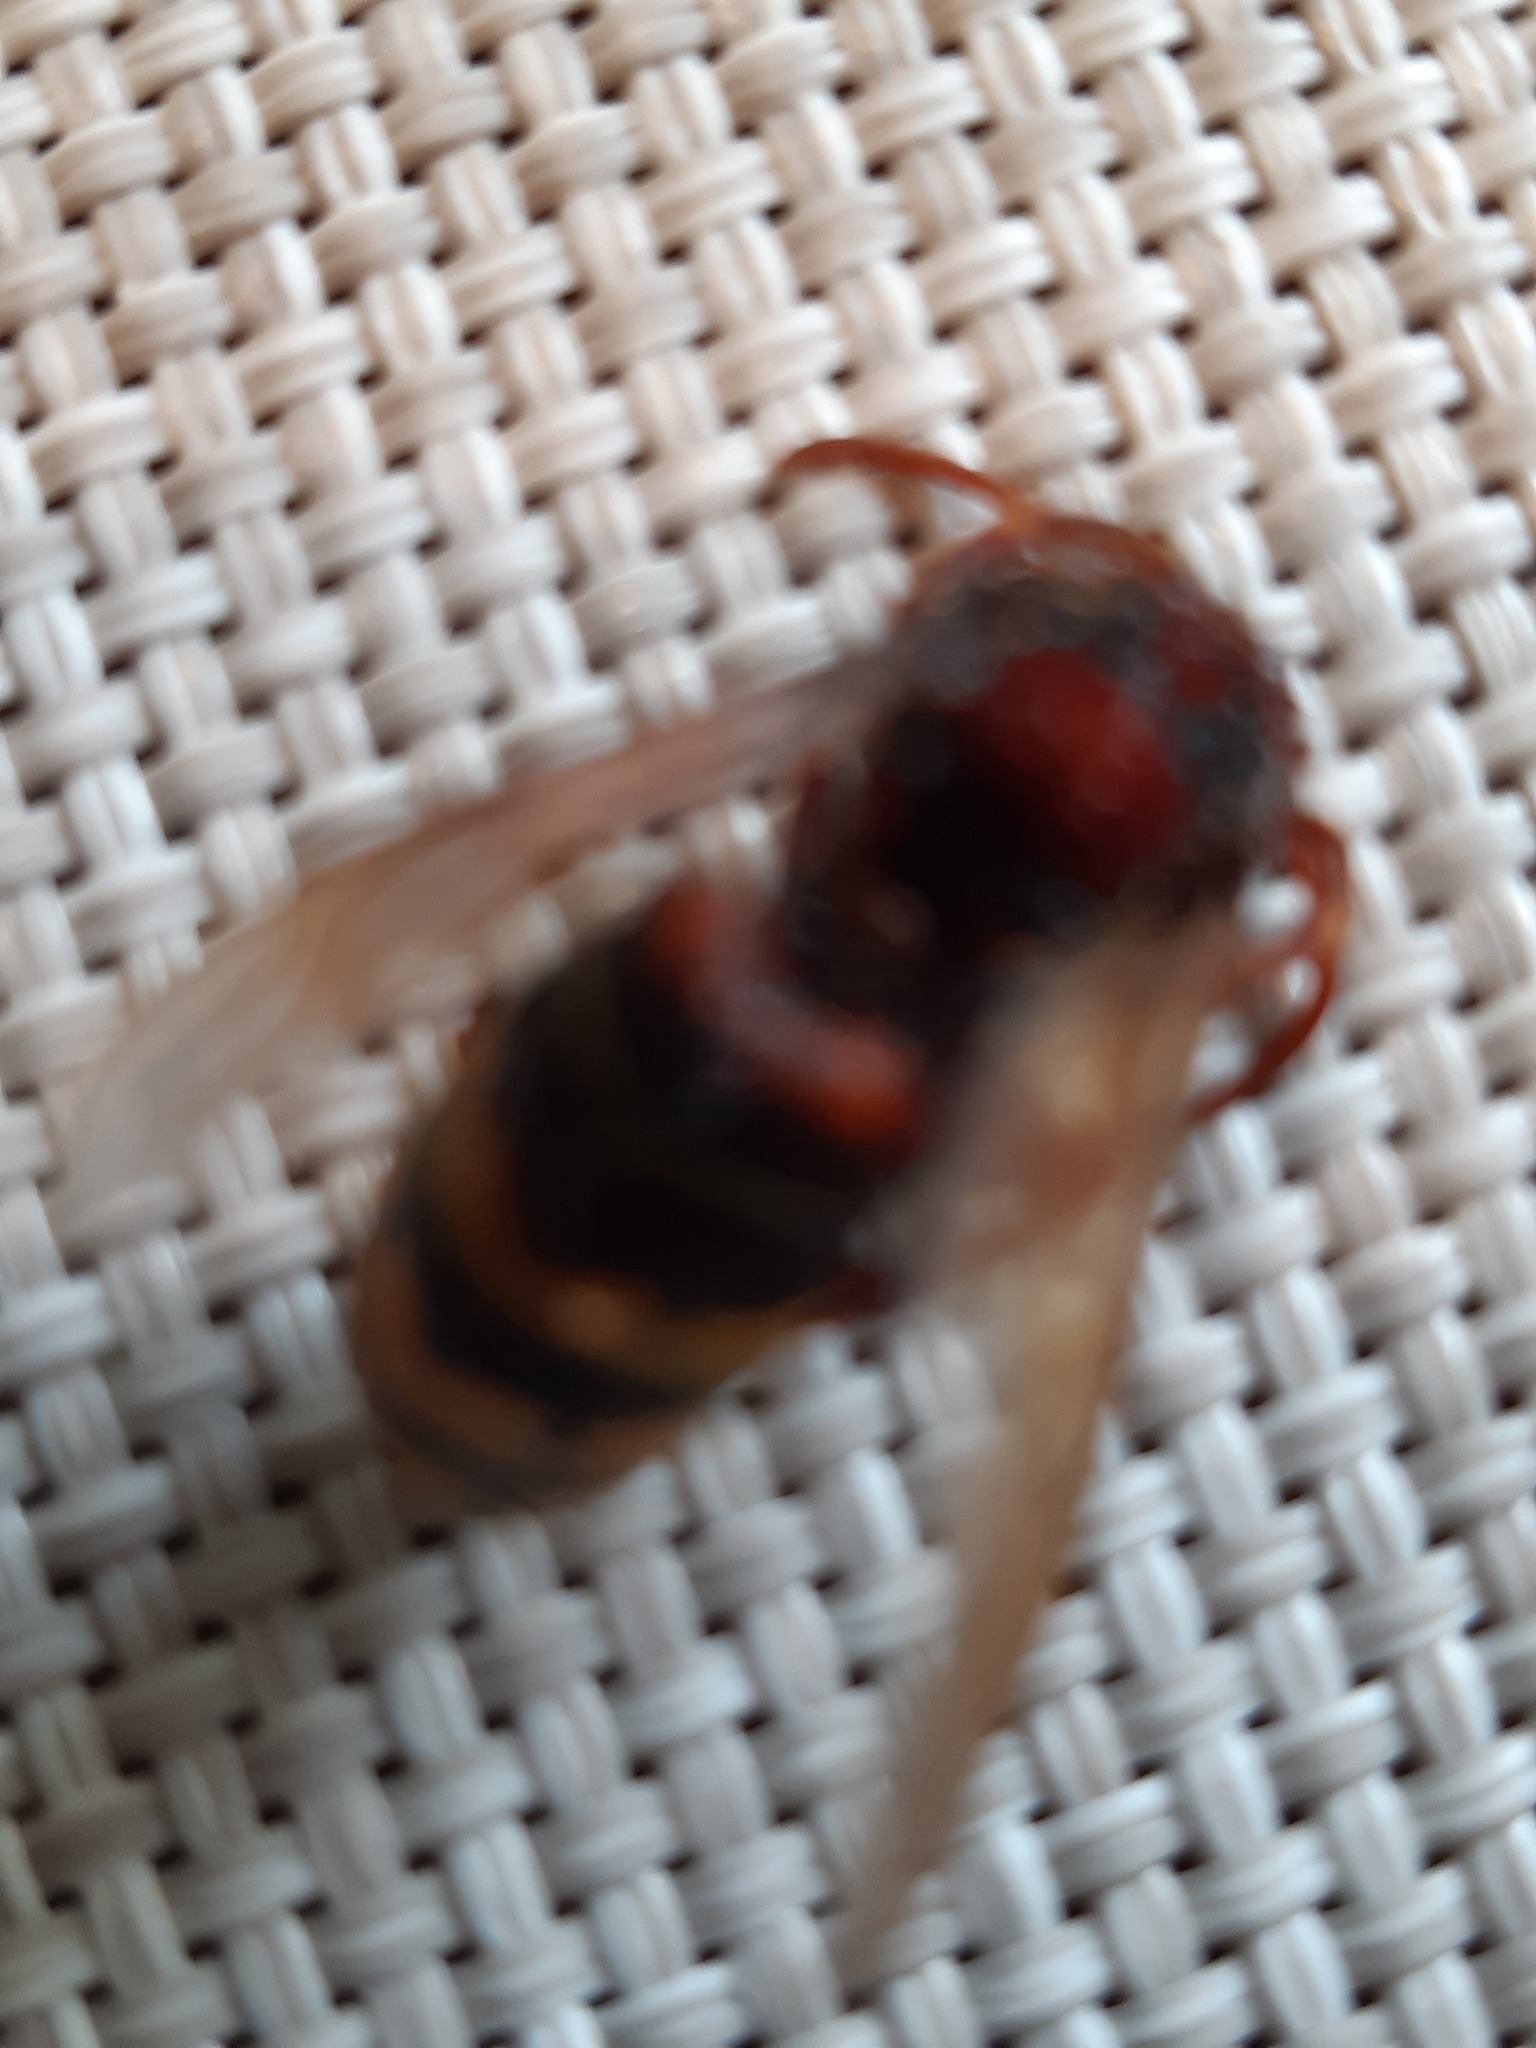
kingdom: Animalia
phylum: Arthropoda
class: Insecta
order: Hymenoptera
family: Vespidae
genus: Vespa
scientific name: Vespa crabro
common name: Hornet
